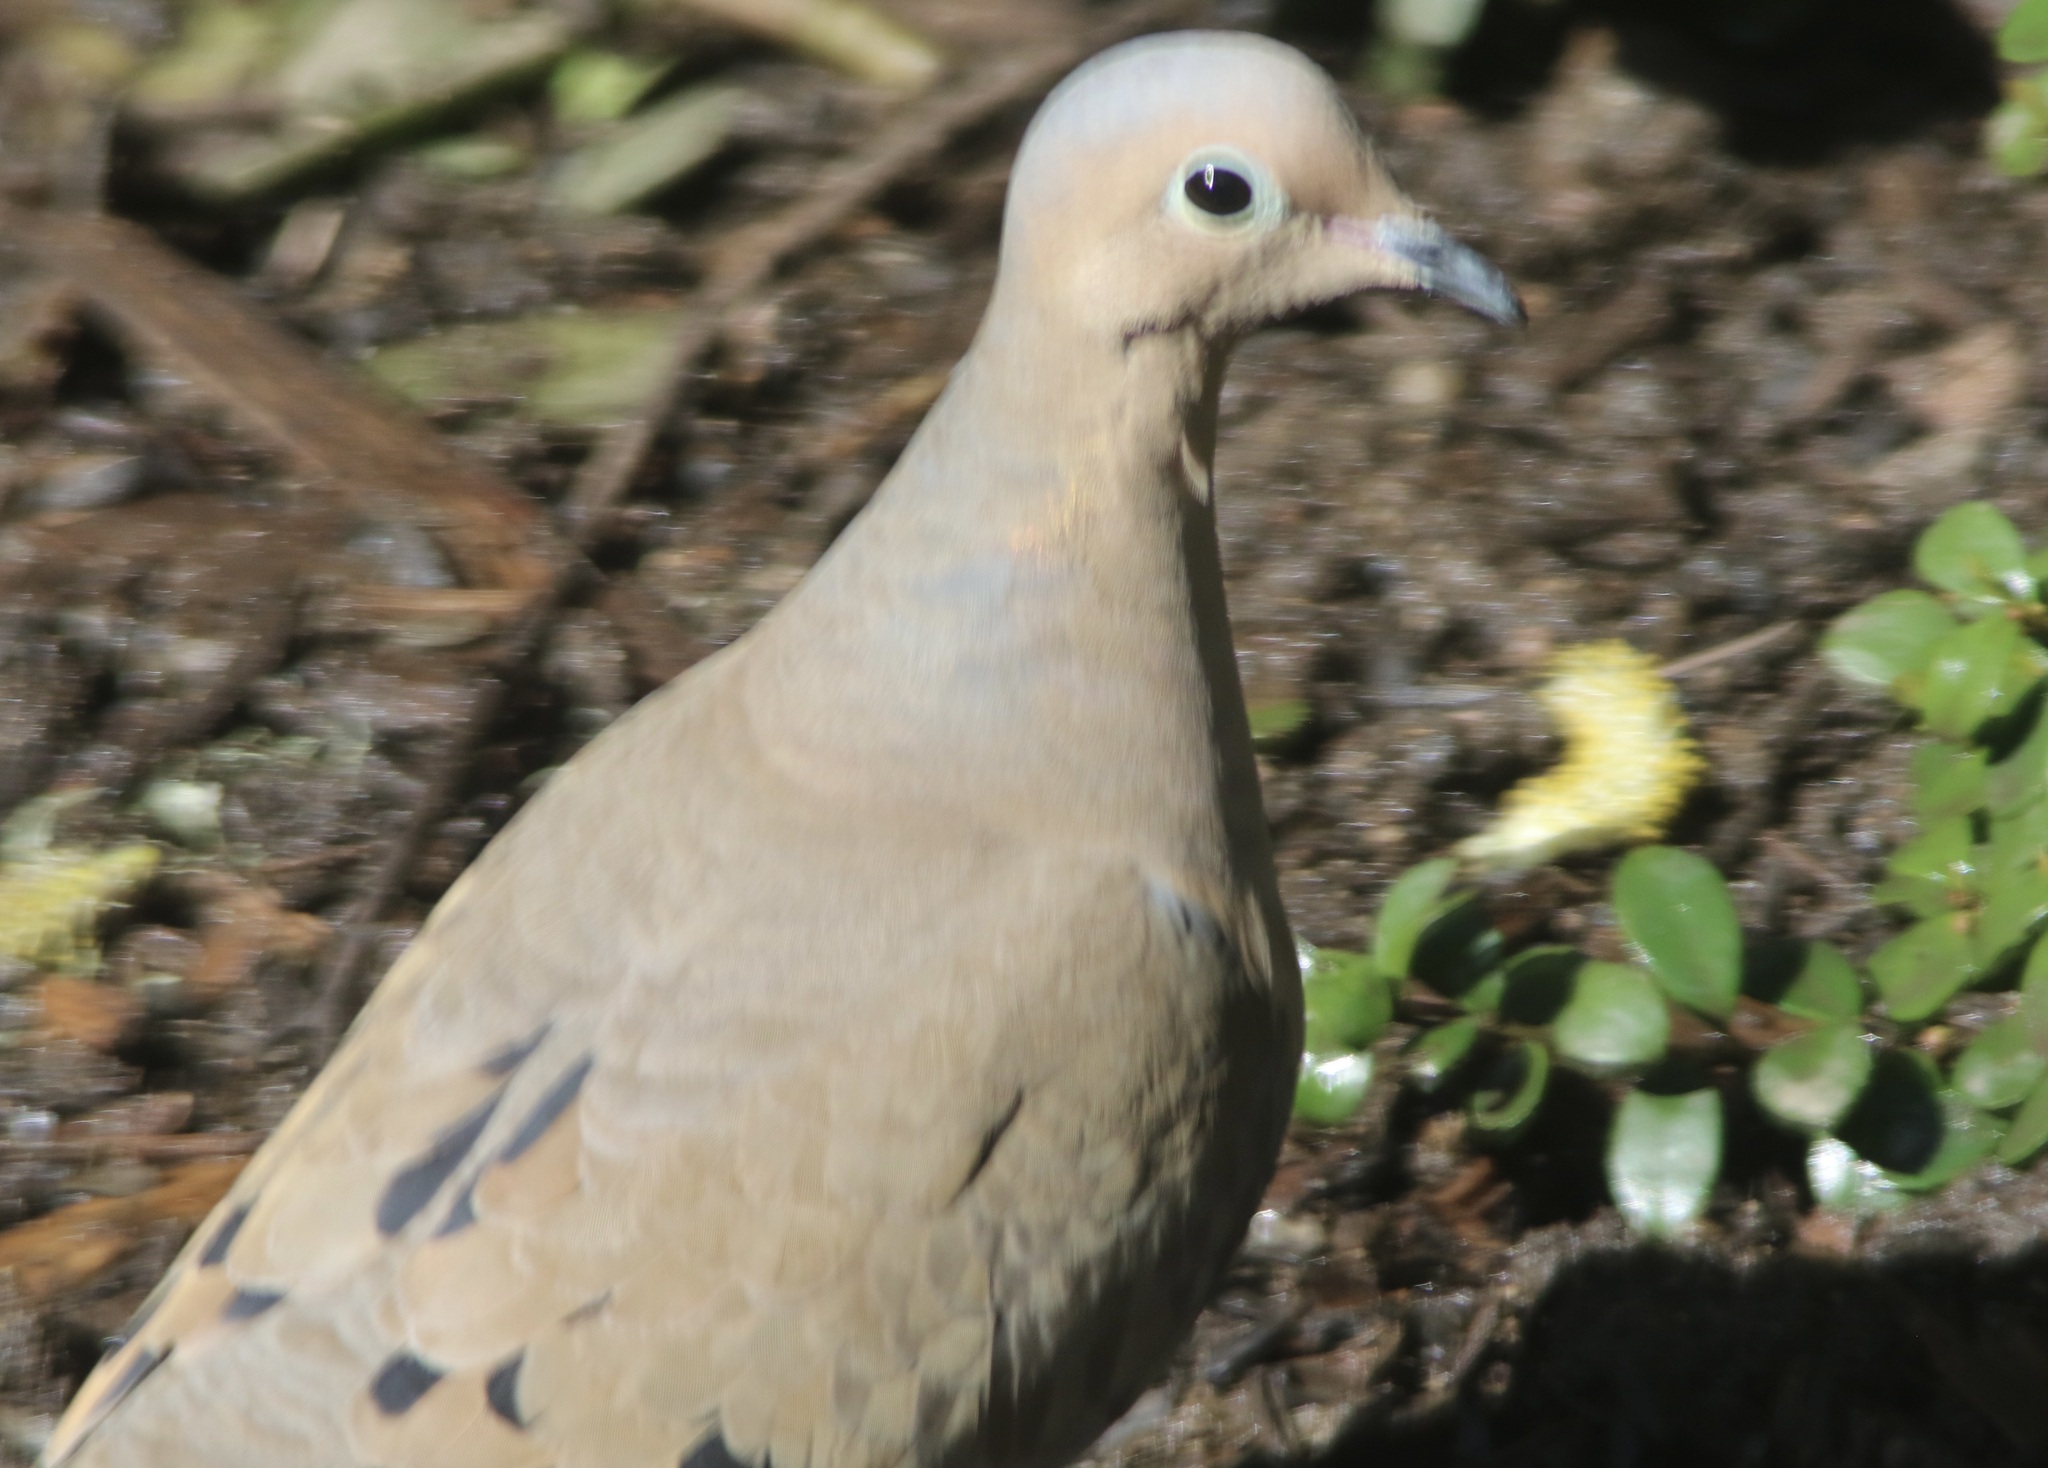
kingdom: Animalia
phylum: Chordata
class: Aves
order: Columbiformes
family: Columbidae
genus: Zenaida
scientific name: Zenaida macroura
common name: Mourning dove
